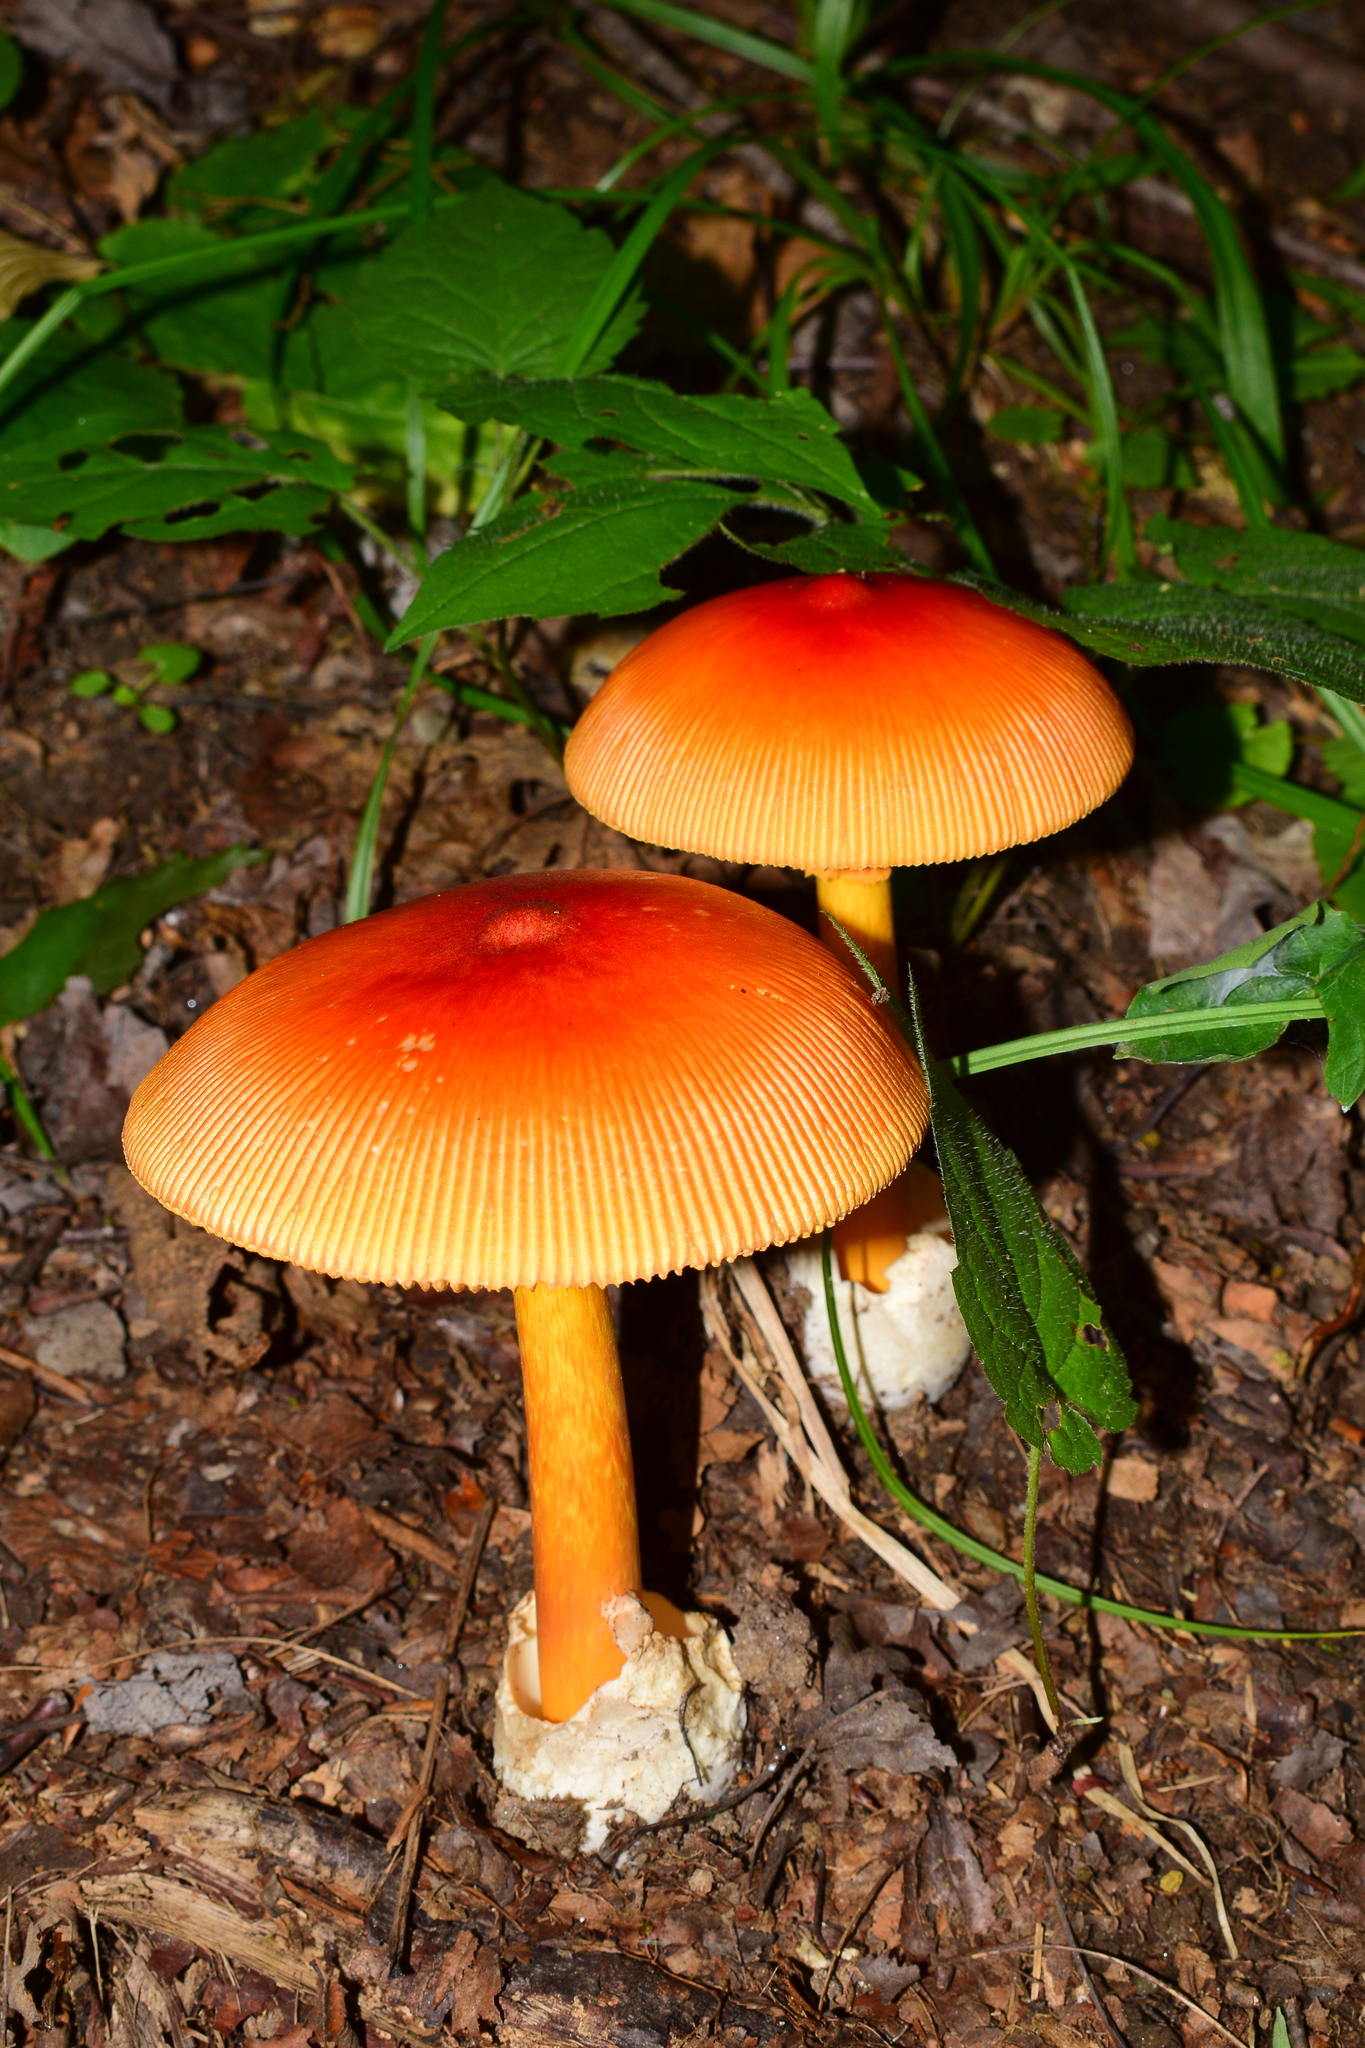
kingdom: Fungi
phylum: Basidiomycota
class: Agaricomycetes
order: Agaricales
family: Amanitaceae
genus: Amanita
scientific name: Amanita jacksonii
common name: Jackson's slender caesar
